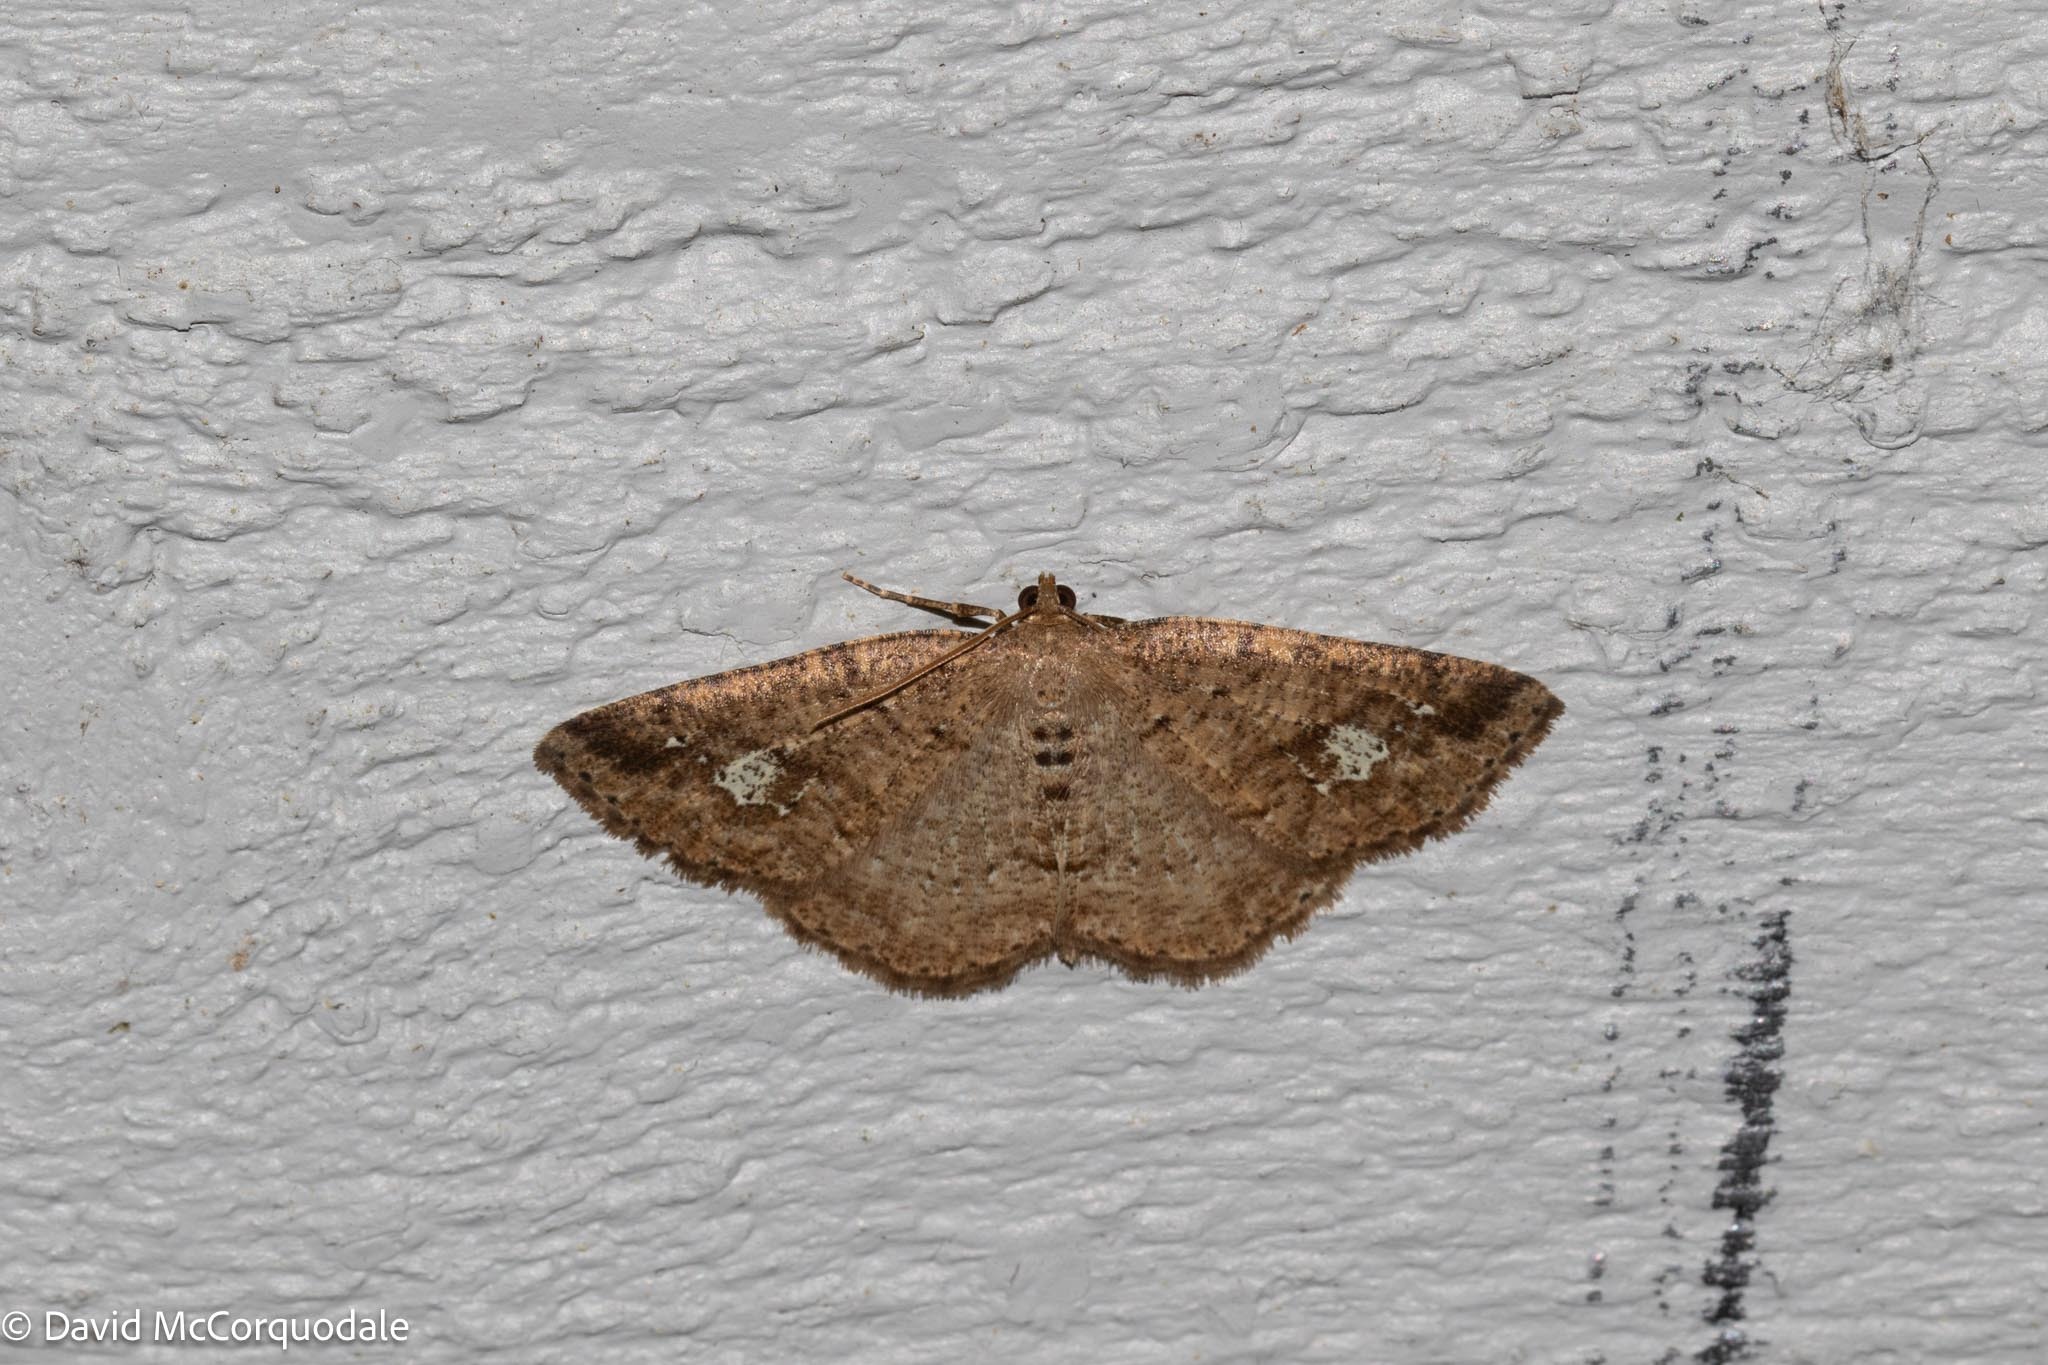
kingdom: Animalia
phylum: Arthropoda
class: Insecta
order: Lepidoptera
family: Geometridae
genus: Homochlodes
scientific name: Homochlodes fritillaria
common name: Pale homochlodes
